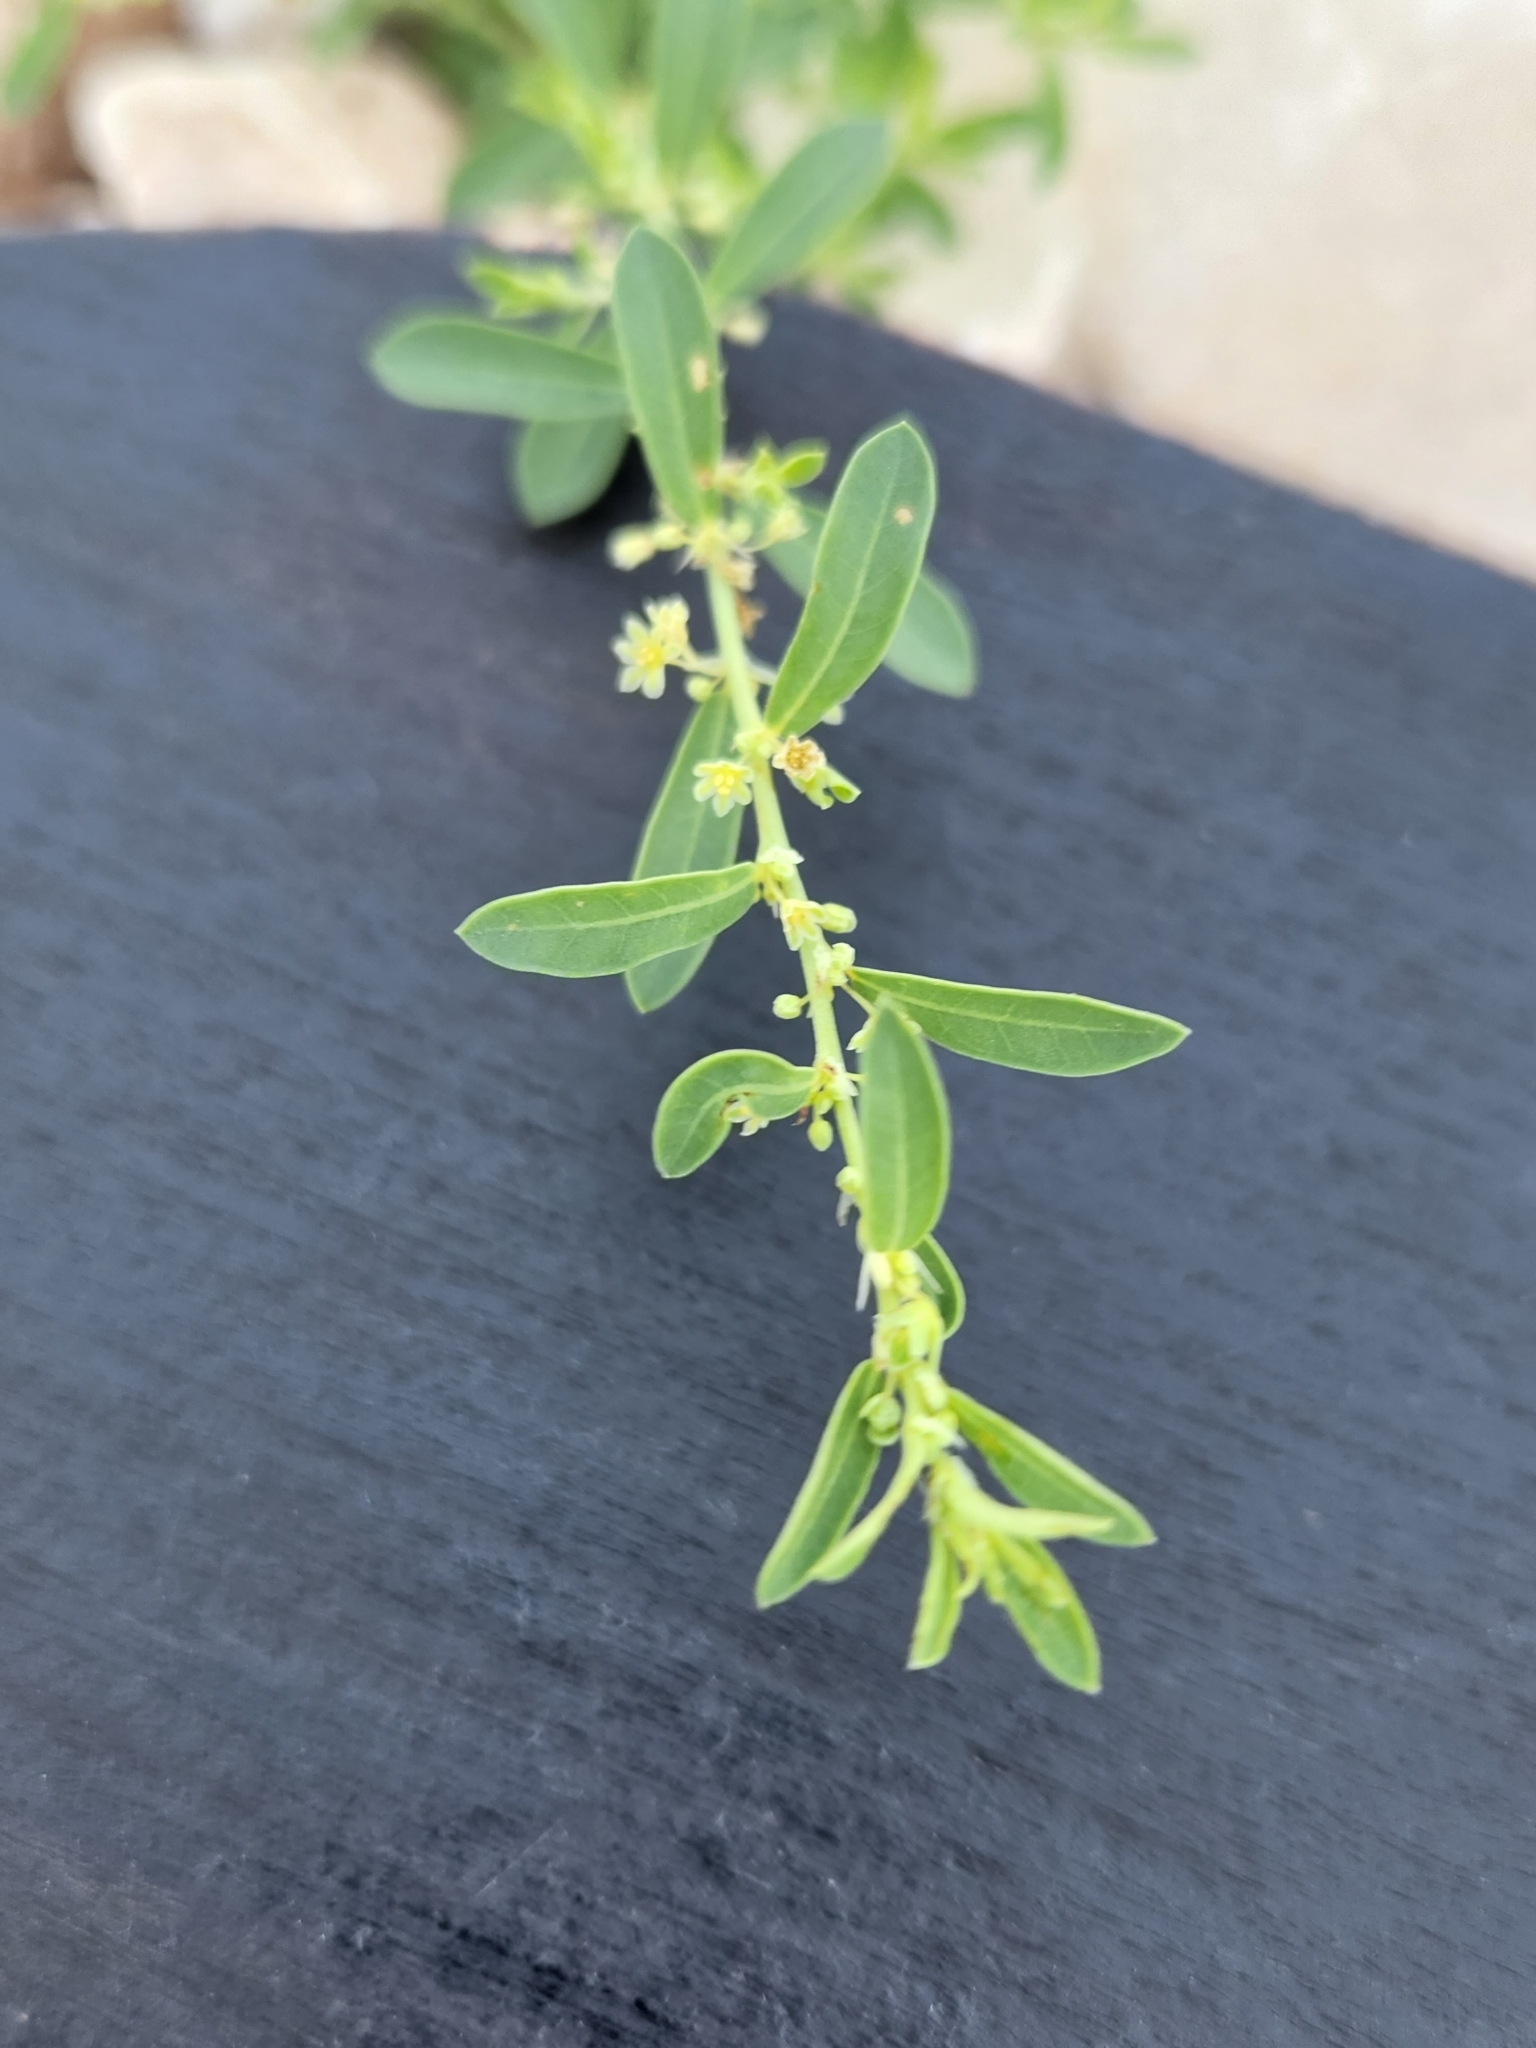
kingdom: Plantae
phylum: Tracheophyta
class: Magnoliopsida
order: Malpighiales
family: Phyllanthaceae
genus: Phyllanthus
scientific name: Phyllanthus polygonoides
